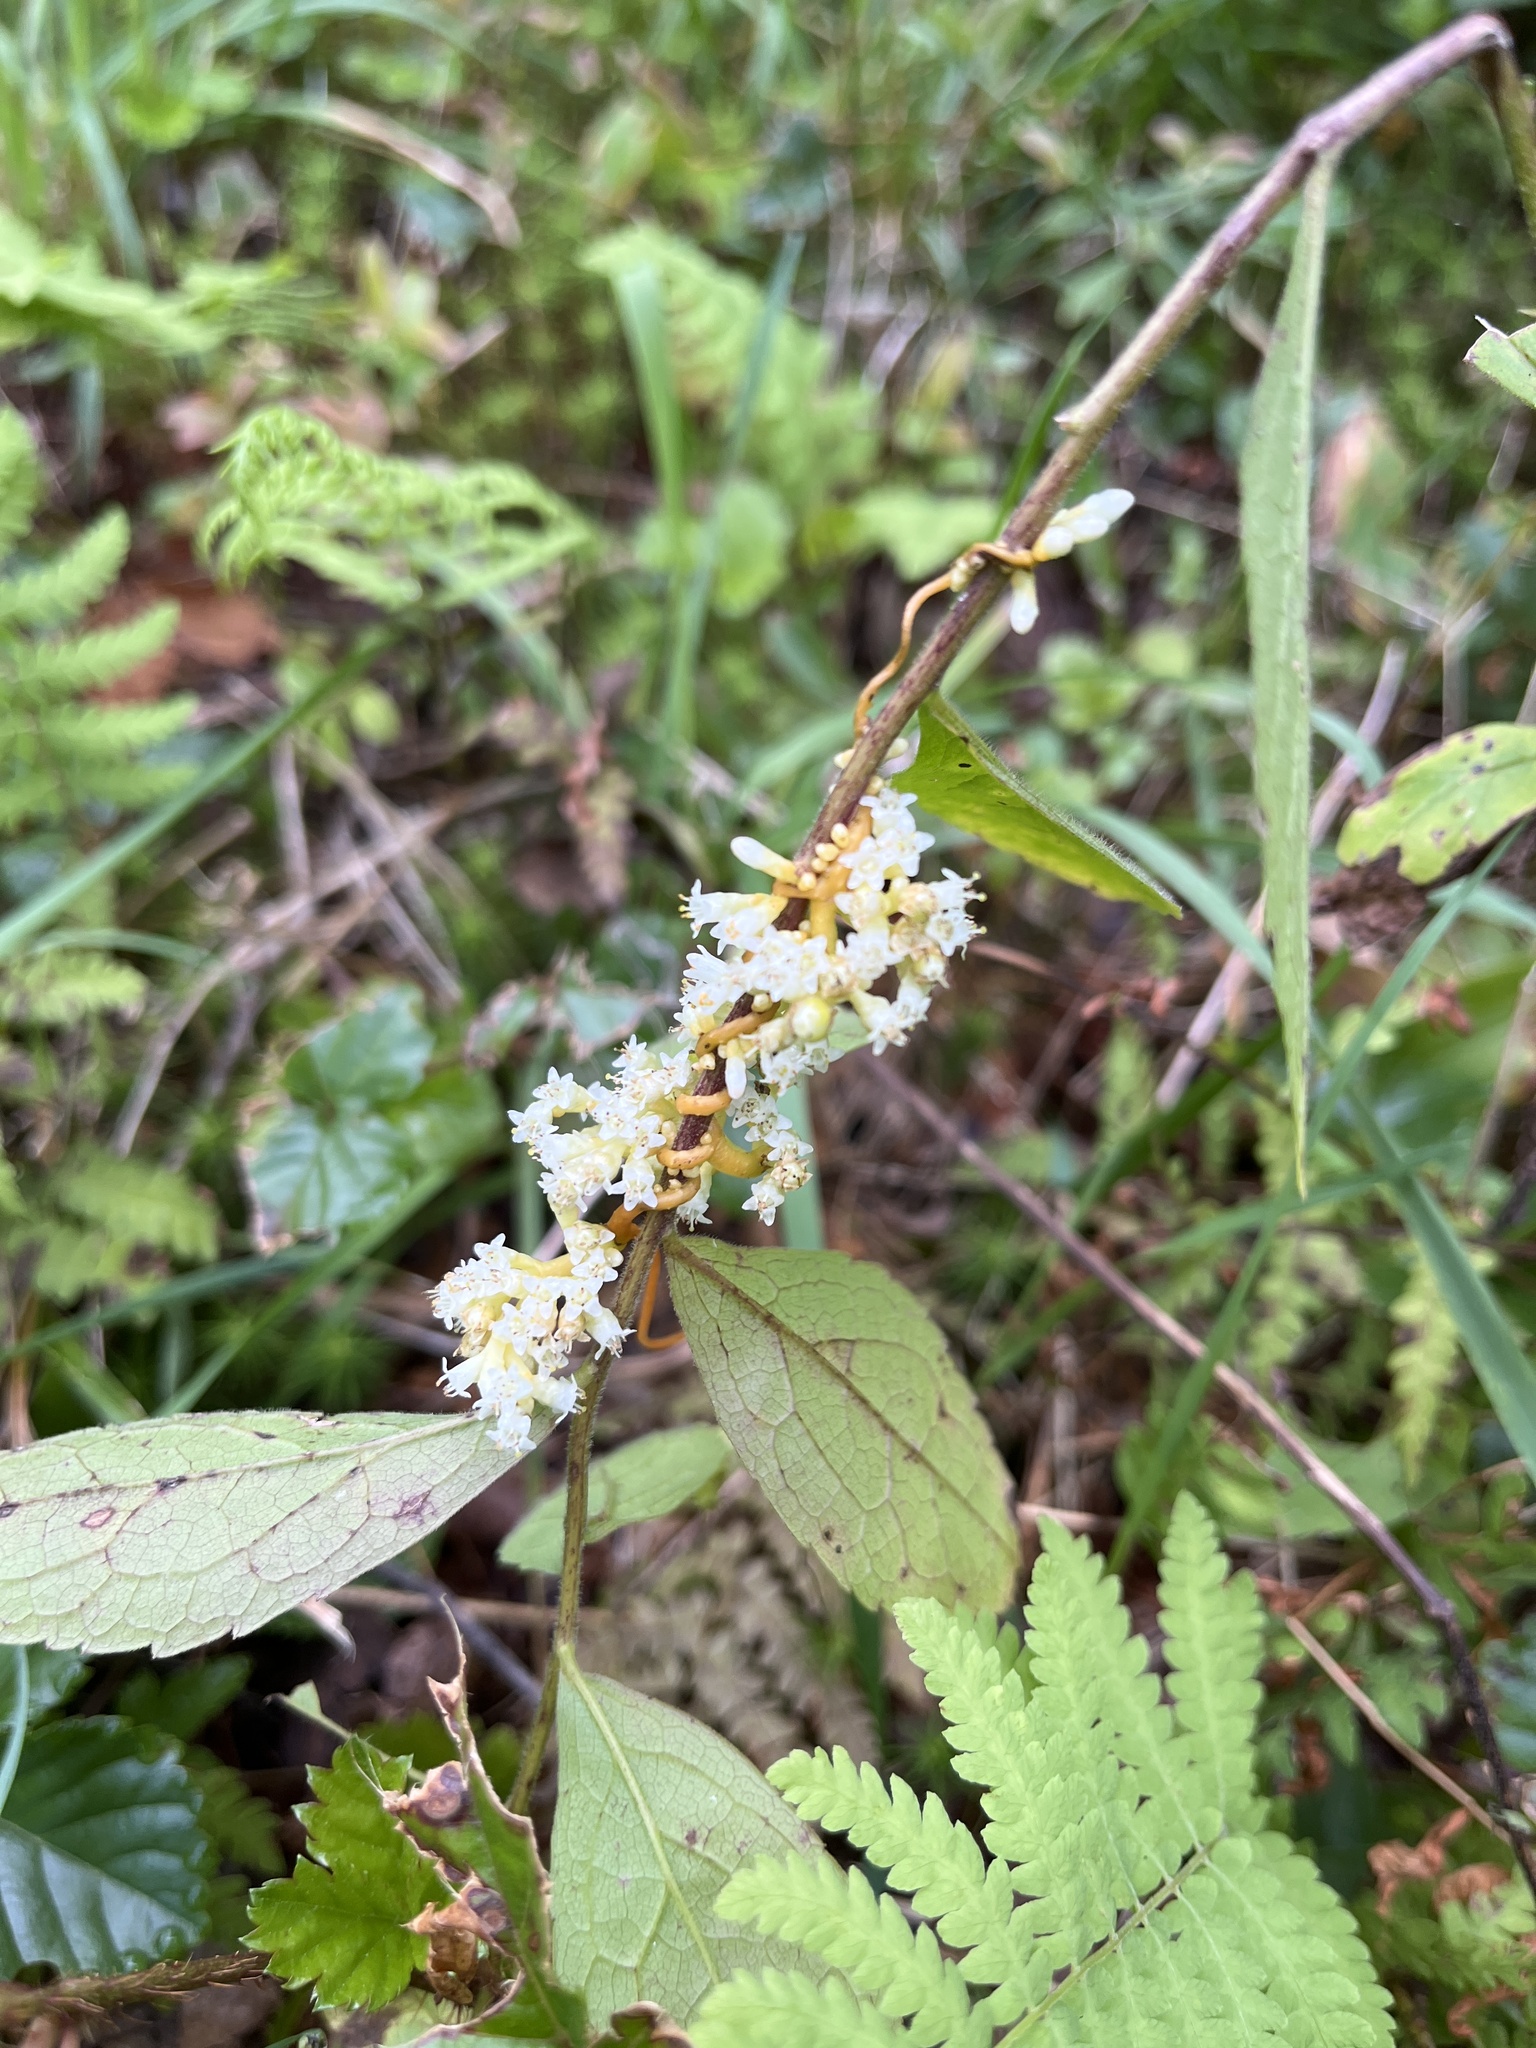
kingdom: Plantae
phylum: Tracheophyta
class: Magnoliopsida
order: Solanales
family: Convolvulaceae
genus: Cuscuta
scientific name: Cuscuta gronovii
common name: Common dodder
